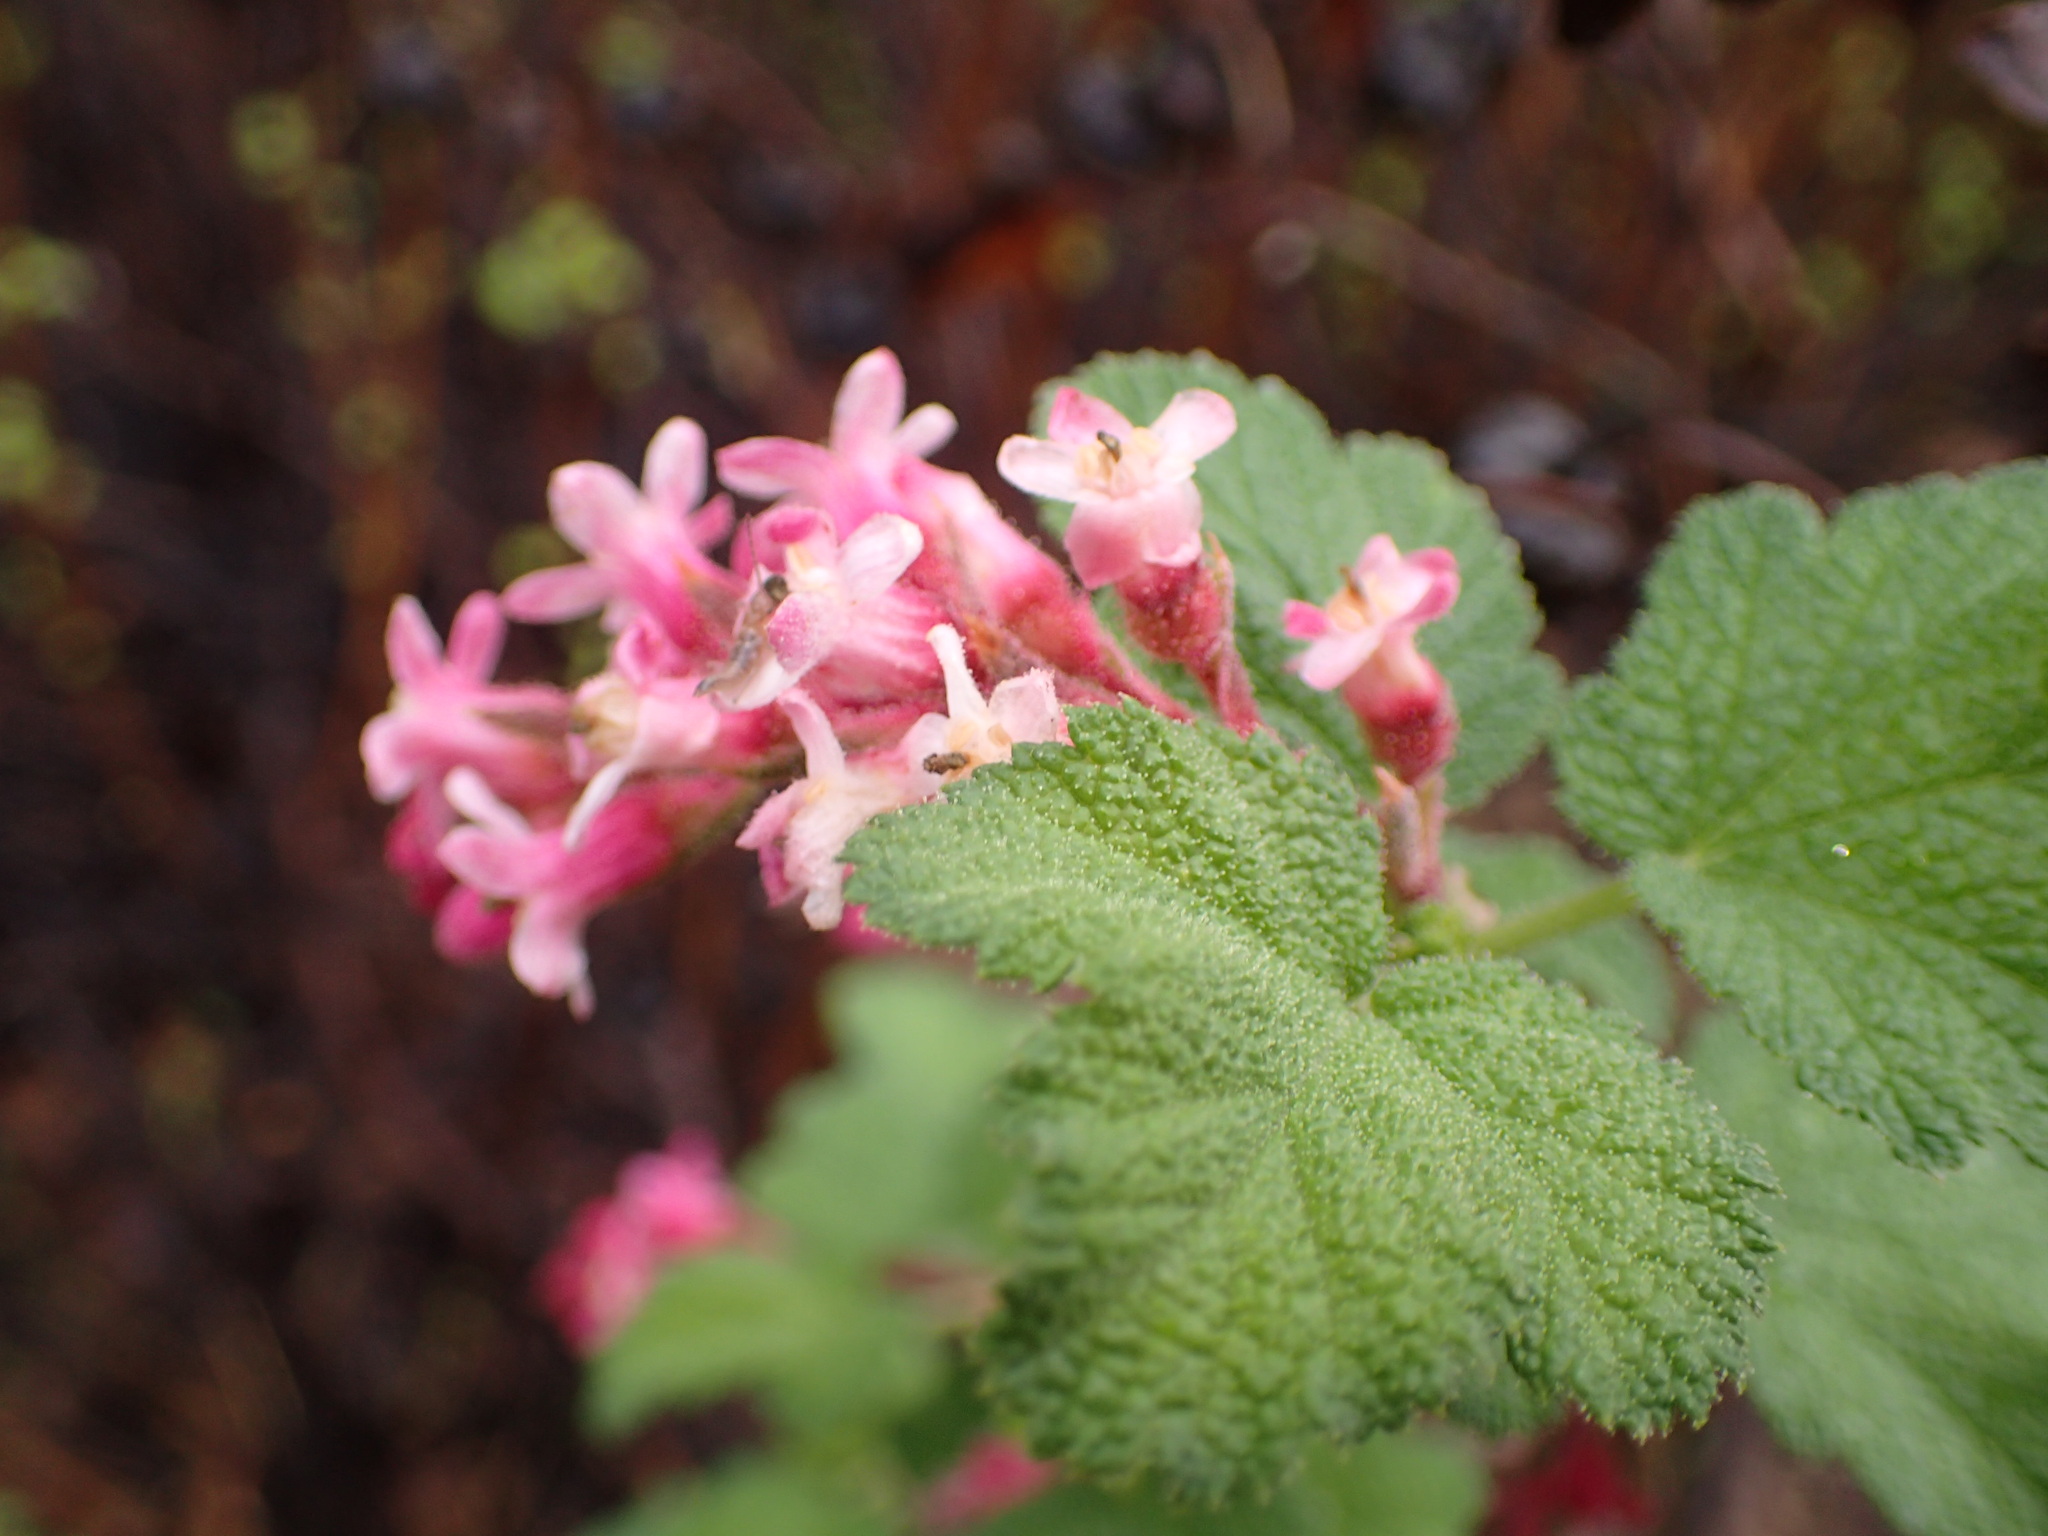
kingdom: Plantae
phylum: Tracheophyta
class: Magnoliopsida
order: Saxifragales
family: Grossulariaceae
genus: Ribes
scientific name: Ribes malvaceum
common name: Chaparral currant
